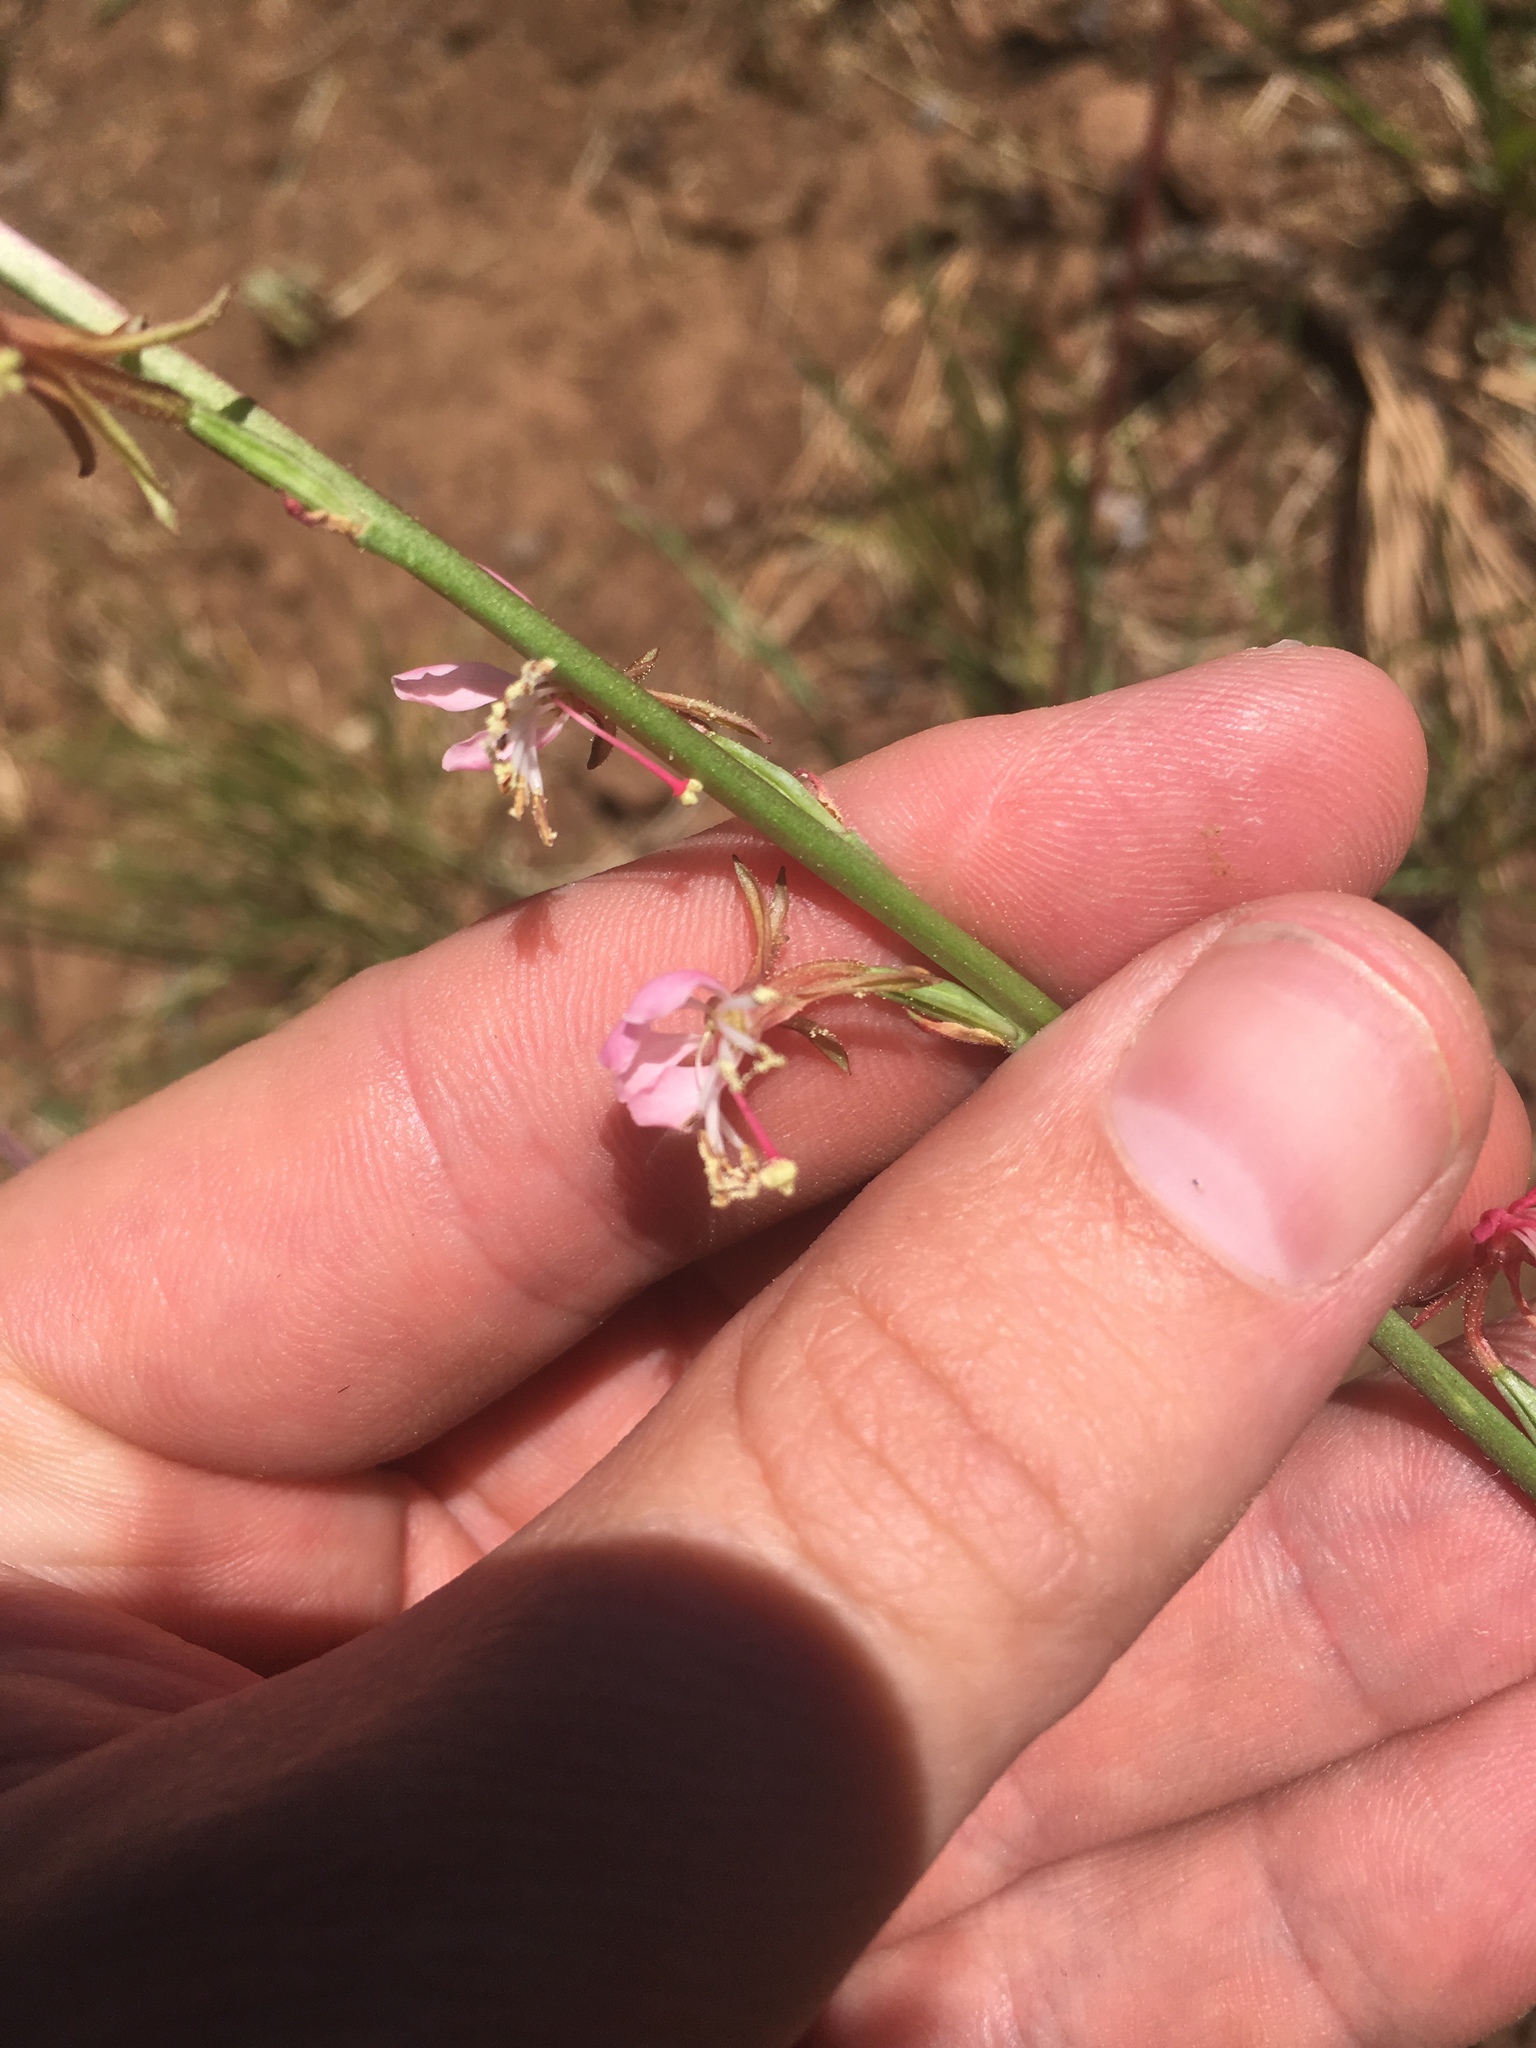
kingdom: Plantae
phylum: Tracheophyta
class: Magnoliopsida
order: Myrtales
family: Onagraceae
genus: Oenothera
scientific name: Oenothera suffrutescens
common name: Scarlet beeblossom
